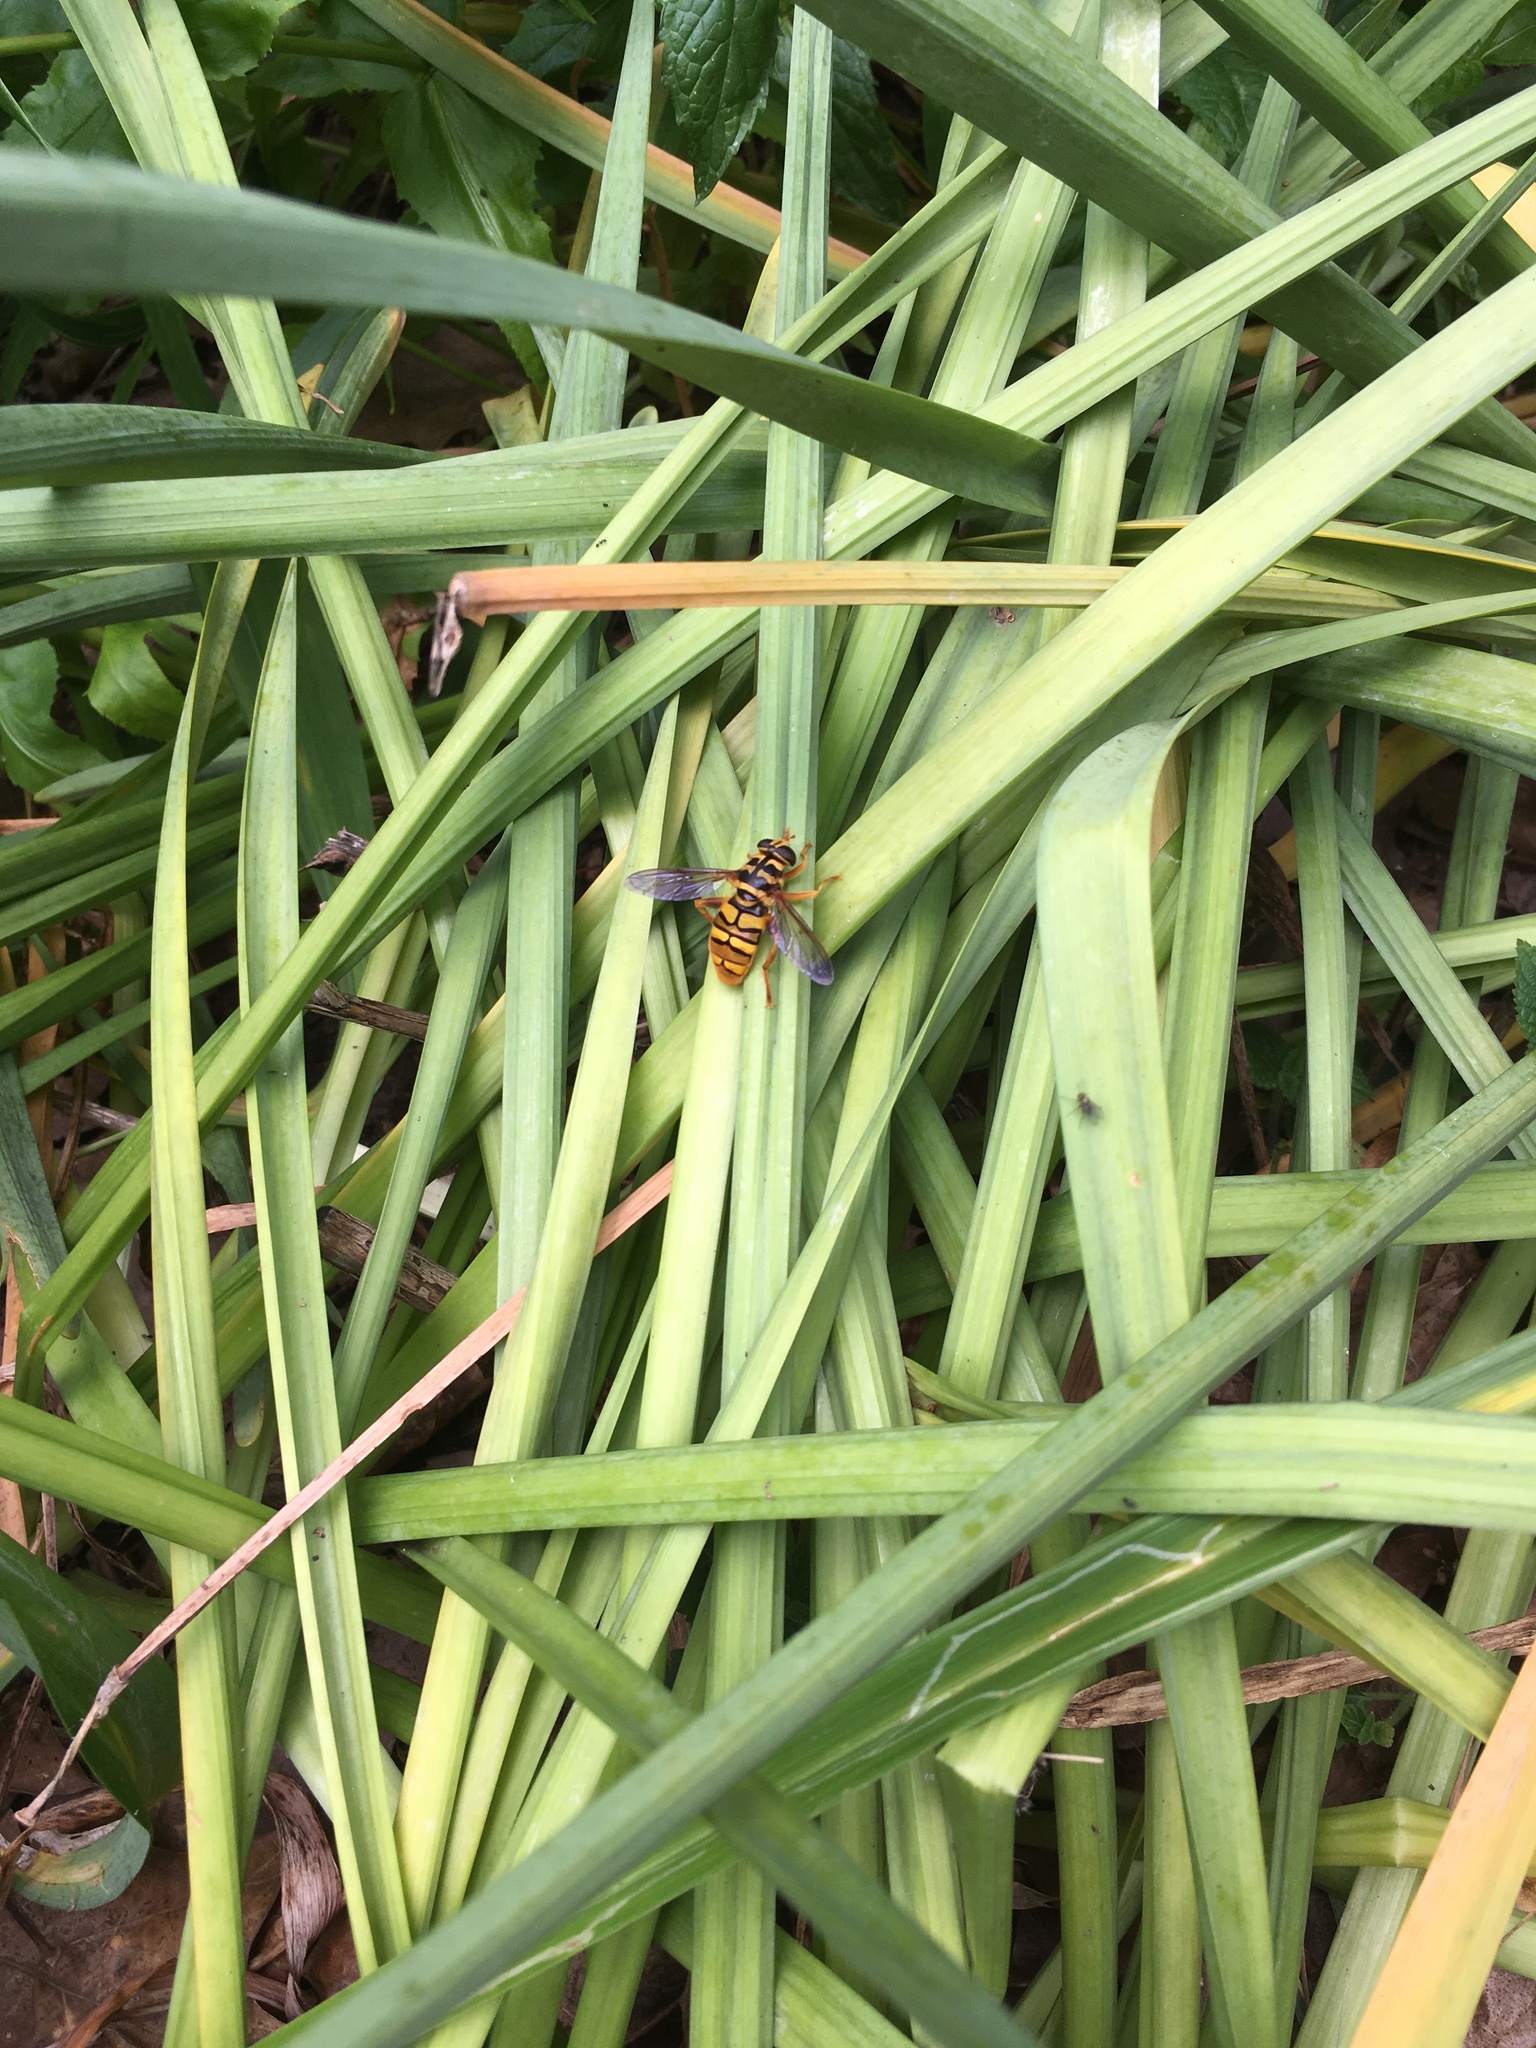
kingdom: Animalia
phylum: Arthropoda
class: Insecta
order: Diptera
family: Syrphidae
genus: Milesia
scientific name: Milesia virginiensis
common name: Virginia giant
